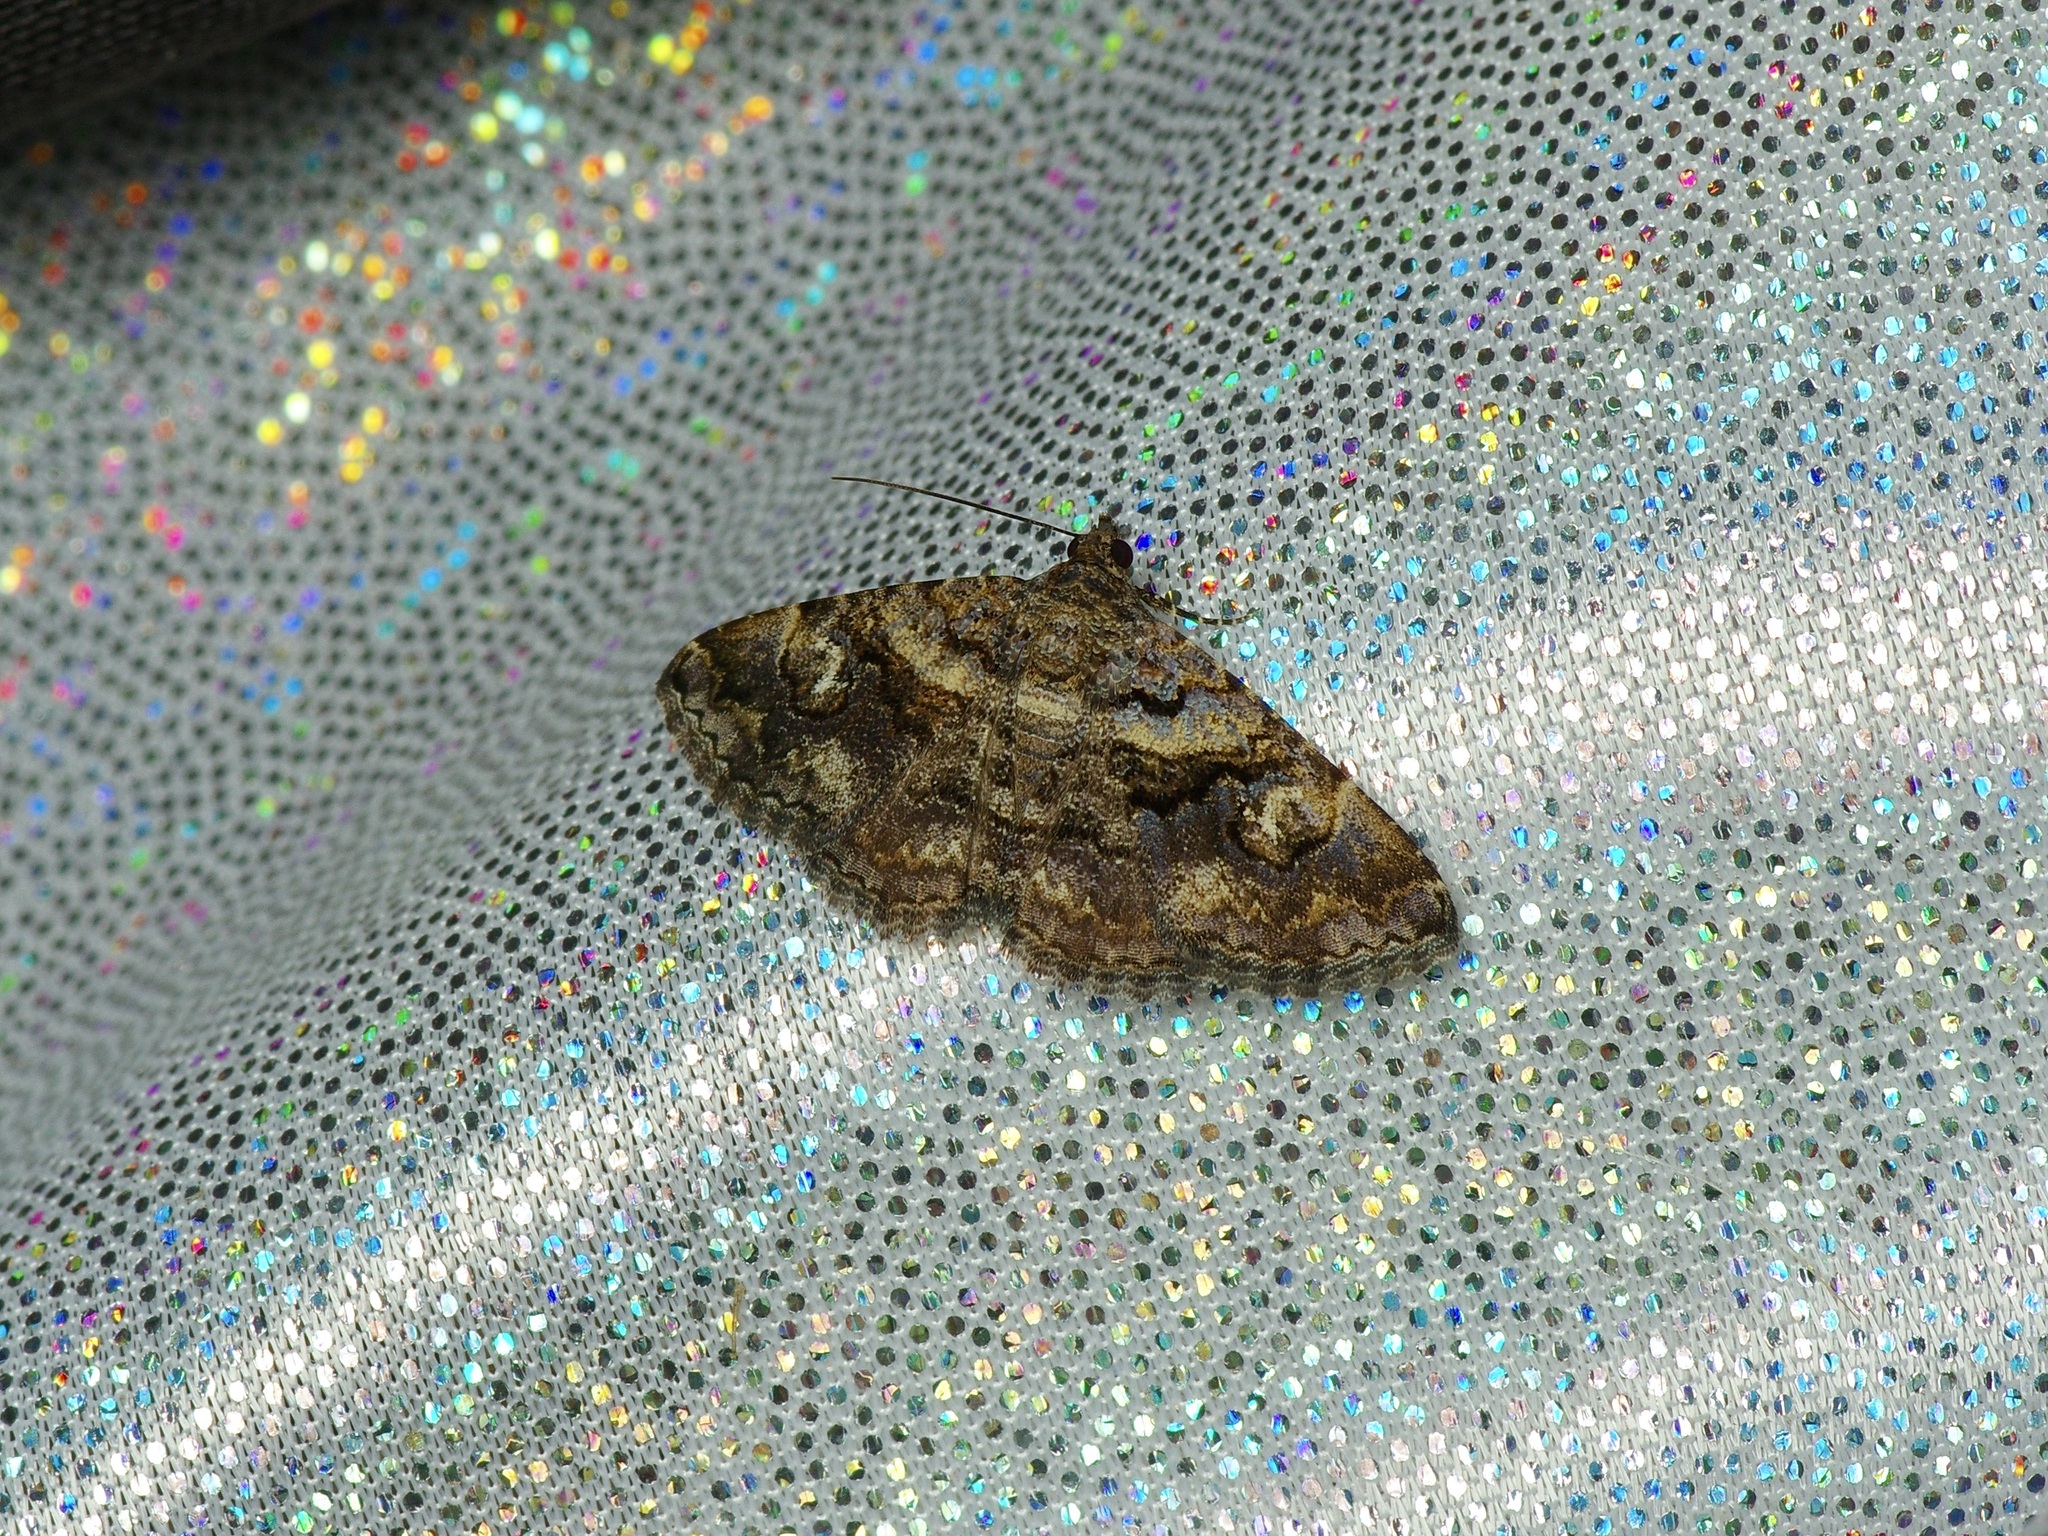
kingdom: Animalia
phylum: Arthropoda
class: Insecta
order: Lepidoptera
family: Erebidae
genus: Toxonprucha
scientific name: Toxonprucha excavata
